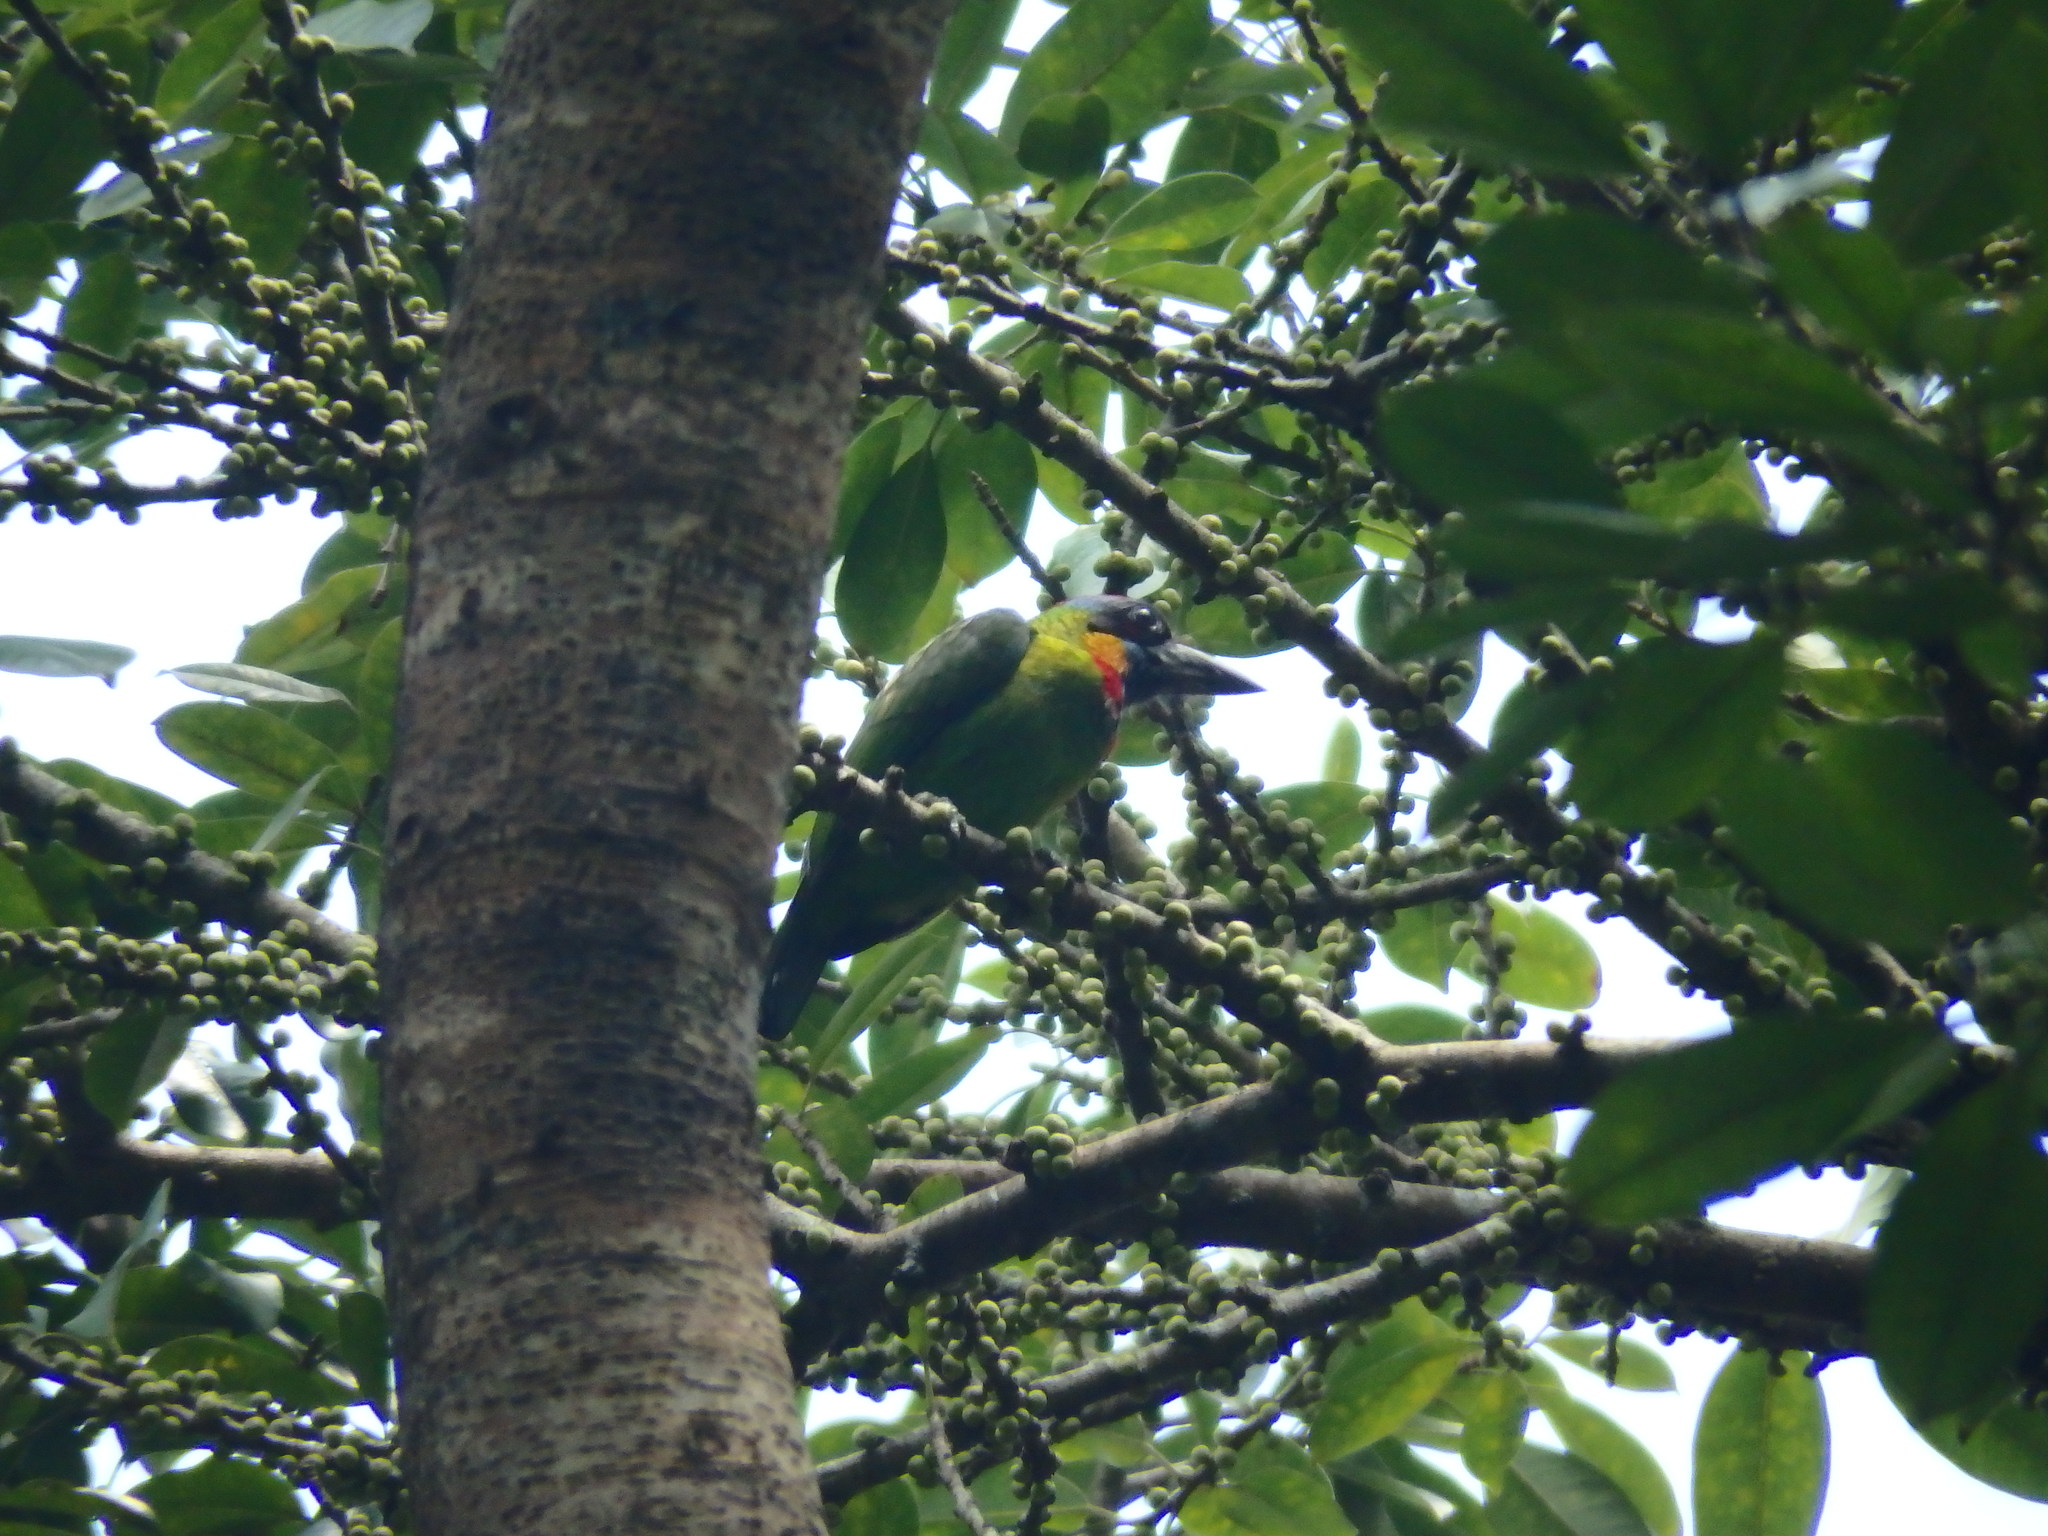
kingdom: Animalia
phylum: Chordata
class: Aves
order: Piciformes
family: Megalaimidae
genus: Psilopogon
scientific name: Psilopogon rafflesii
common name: Red-crowned barbet
